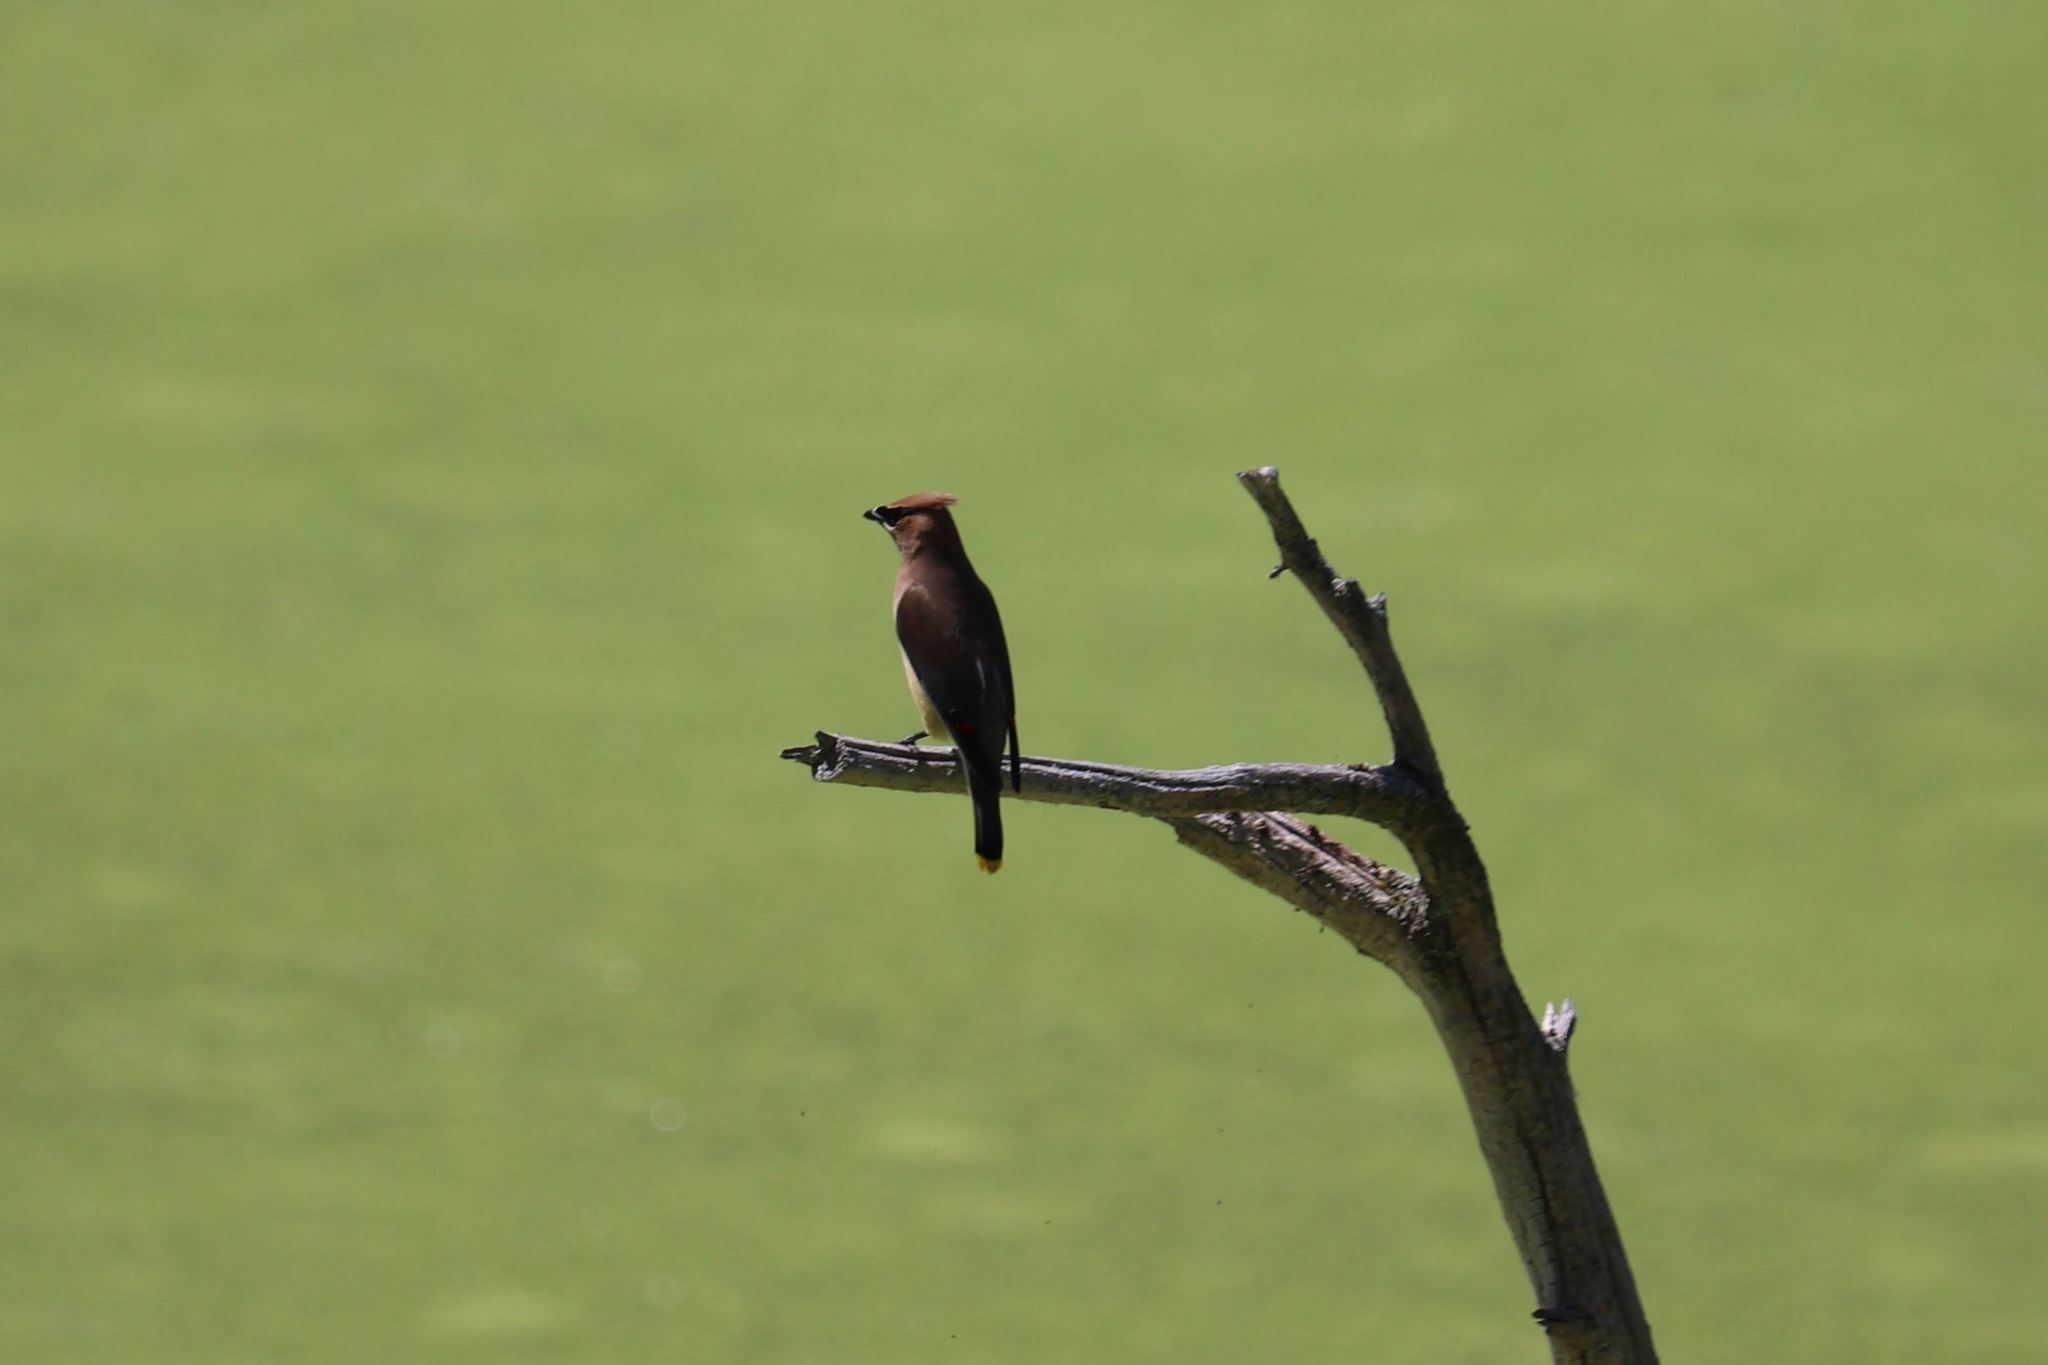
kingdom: Animalia
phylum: Chordata
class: Aves
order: Passeriformes
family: Bombycillidae
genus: Bombycilla
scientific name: Bombycilla cedrorum
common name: Cedar waxwing
